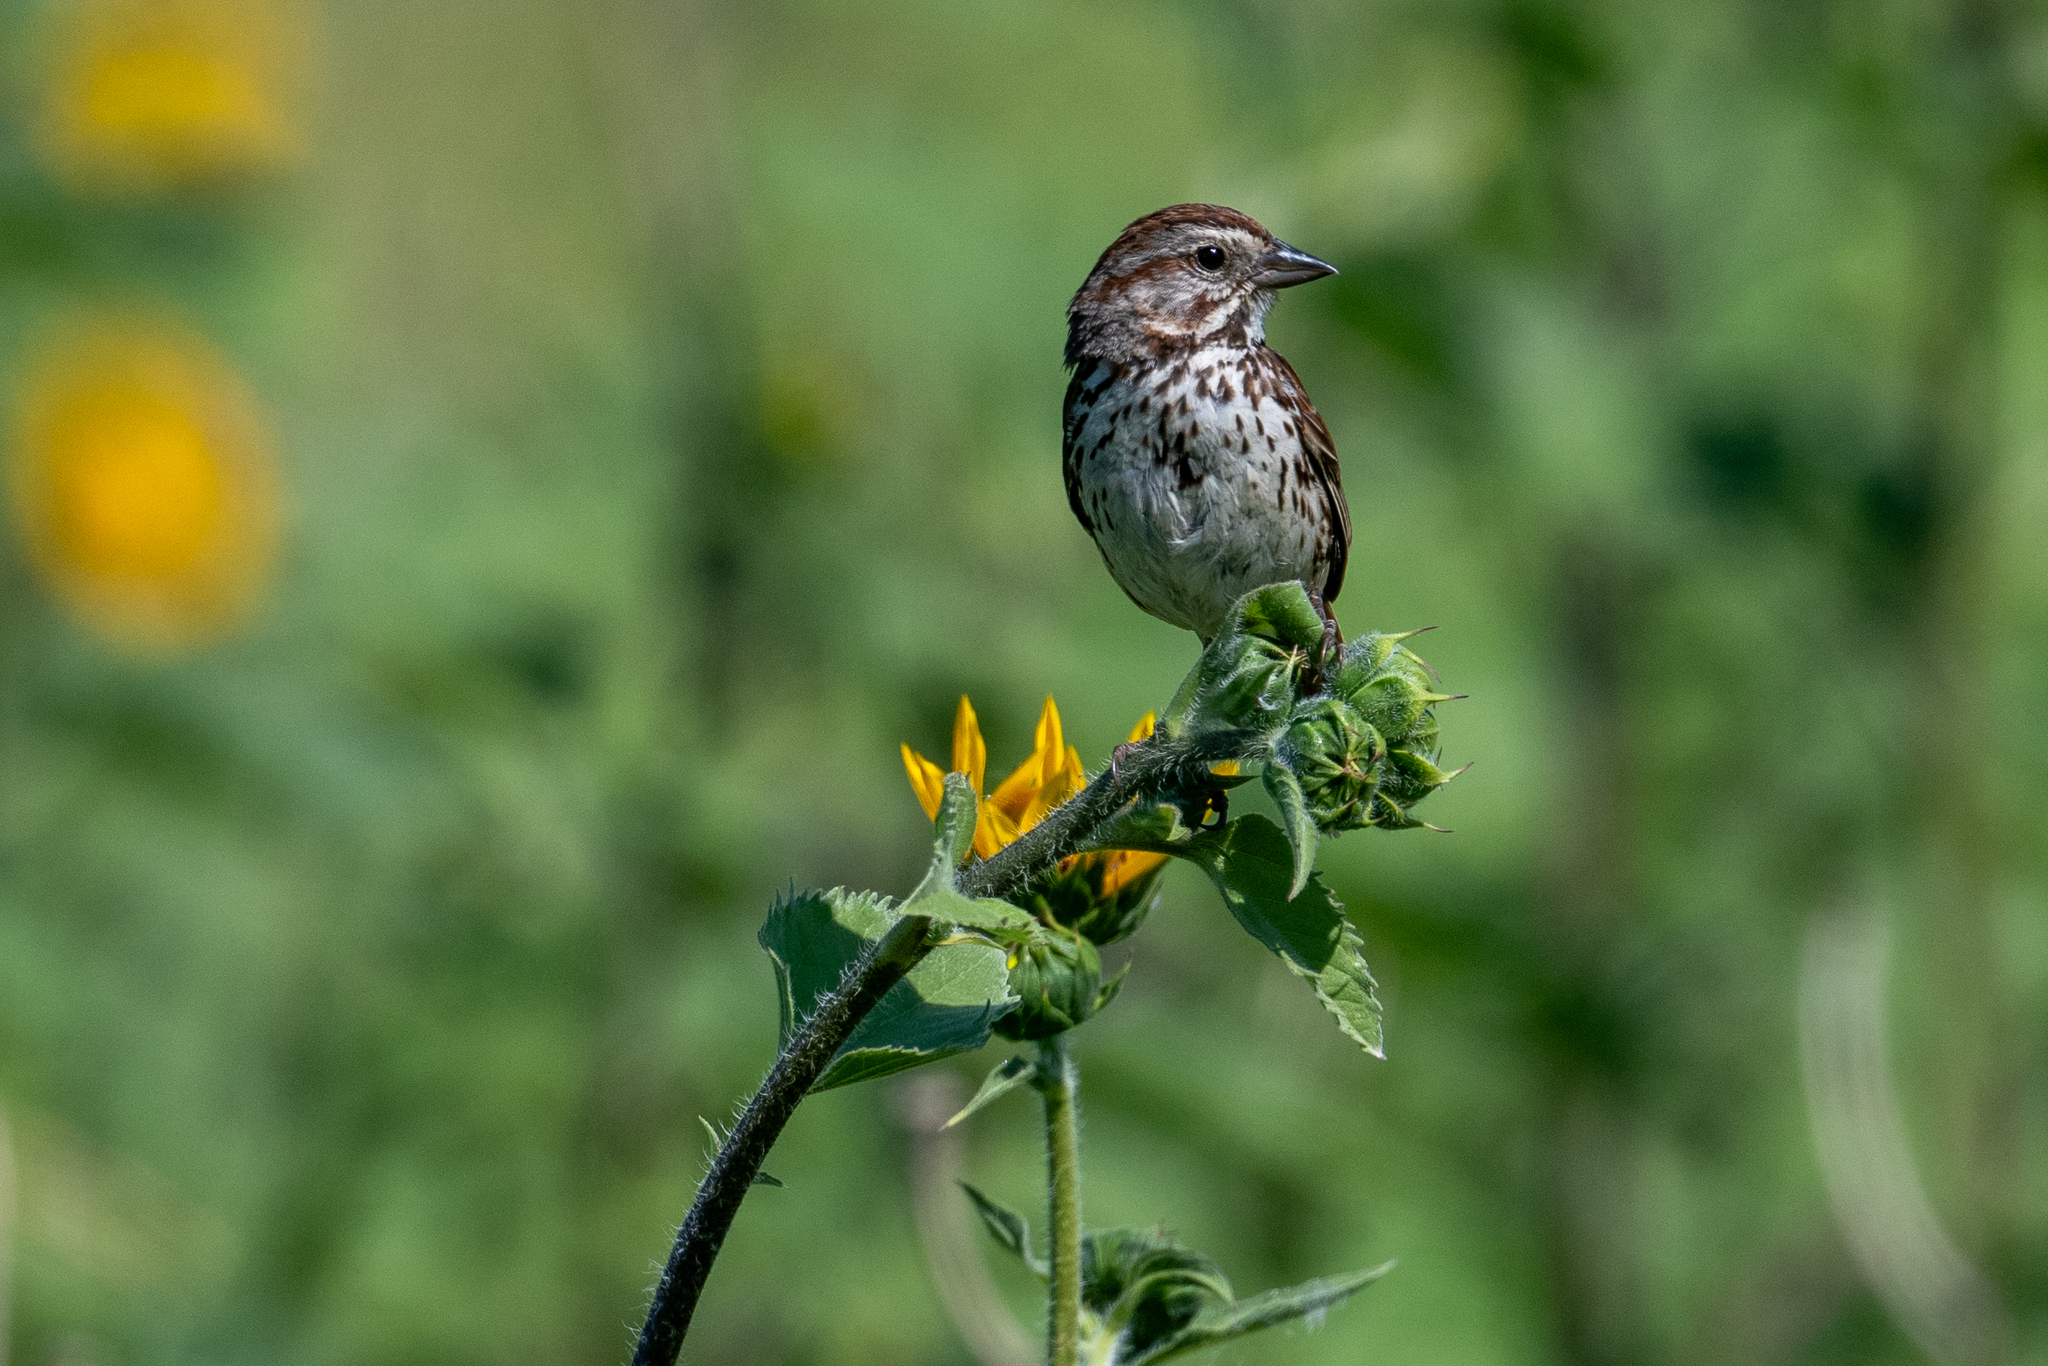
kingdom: Animalia
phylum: Chordata
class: Aves
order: Passeriformes
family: Passerellidae
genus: Melospiza
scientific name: Melospiza melodia
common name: Song sparrow
